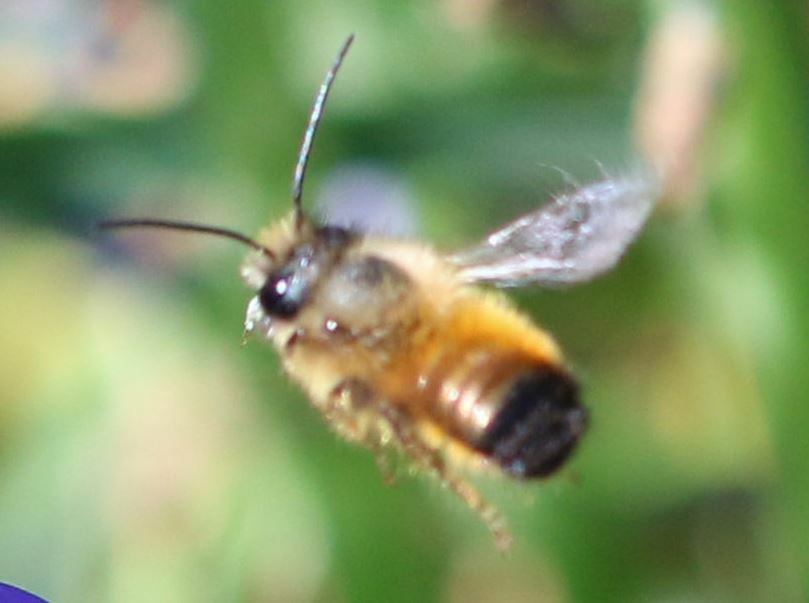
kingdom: Animalia
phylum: Arthropoda
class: Insecta
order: Hymenoptera
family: Megachilidae
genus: Osmia
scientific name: Osmia bicornis
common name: Red mason bee
